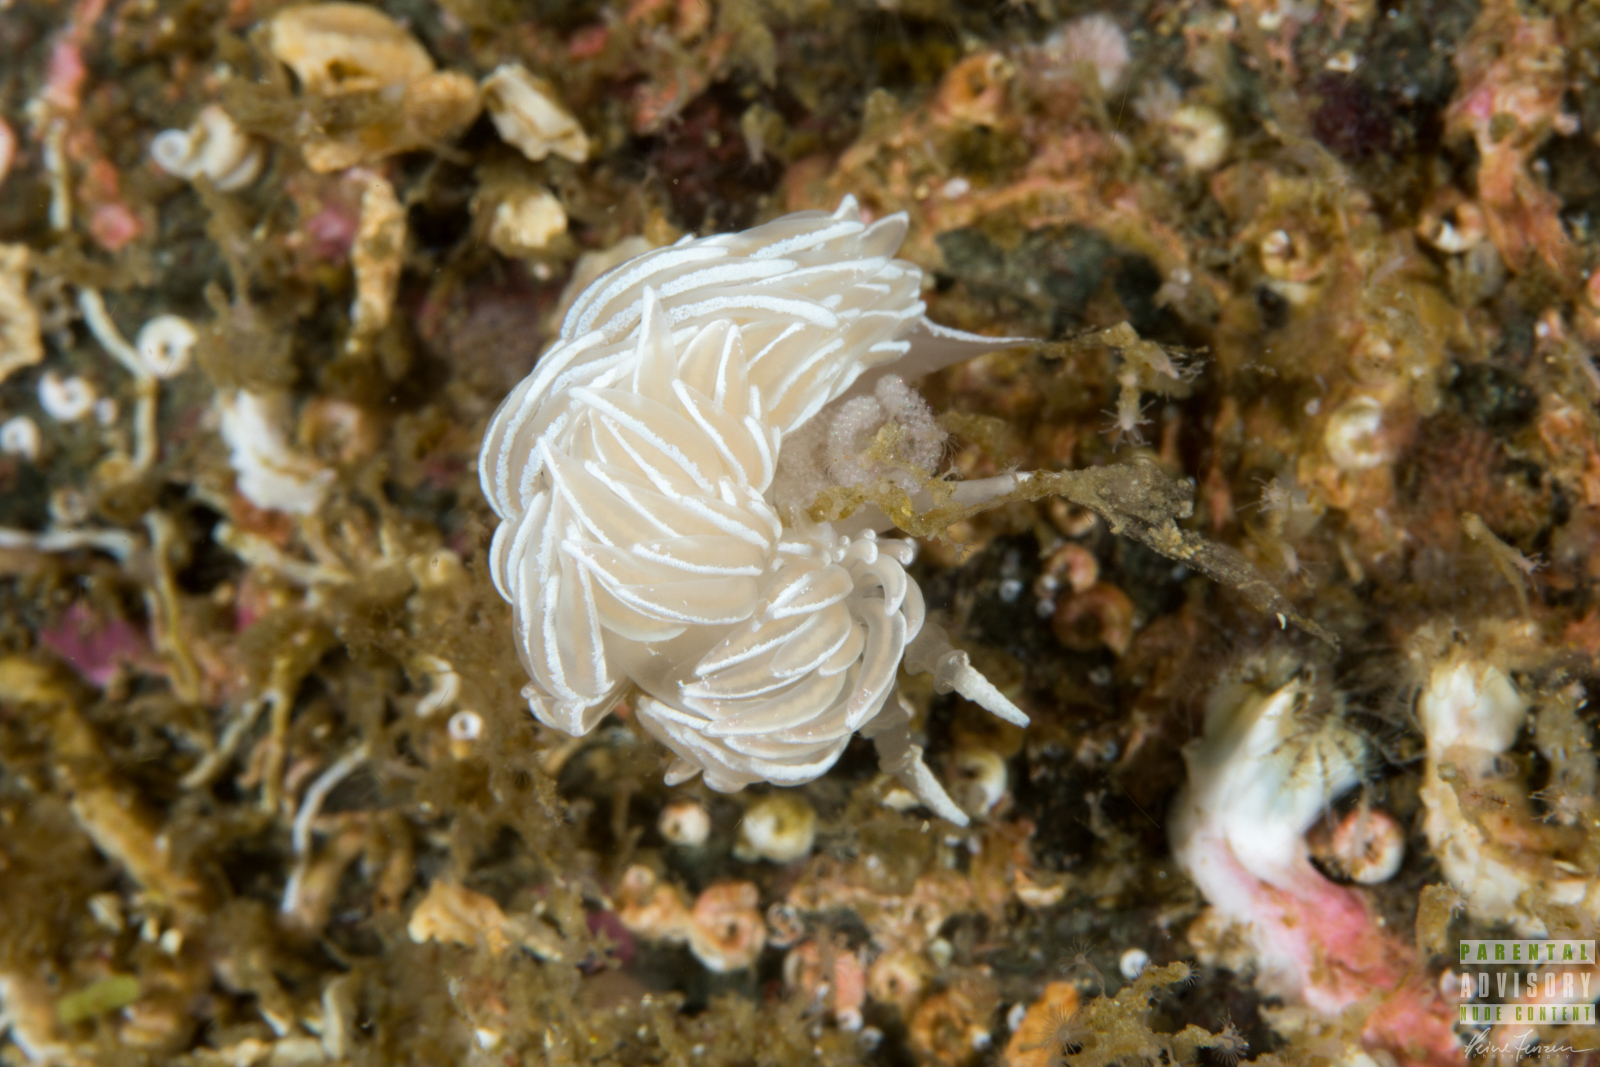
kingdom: Animalia
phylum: Mollusca
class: Gastropoda
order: Nudibranchia
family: Facelinidae
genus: Favorinus
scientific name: Favorinus blianus
